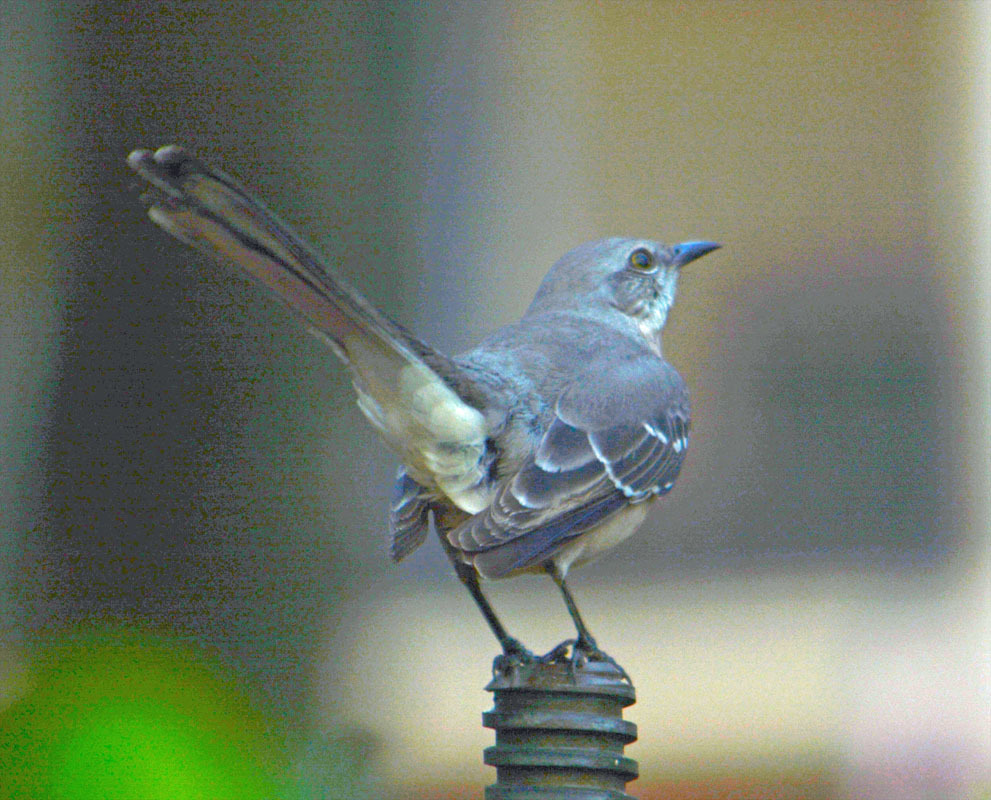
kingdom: Animalia
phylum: Chordata
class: Aves
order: Passeriformes
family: Mimidae
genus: Mimus
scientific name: Mimus polyglottos
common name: Northern mockingbird
